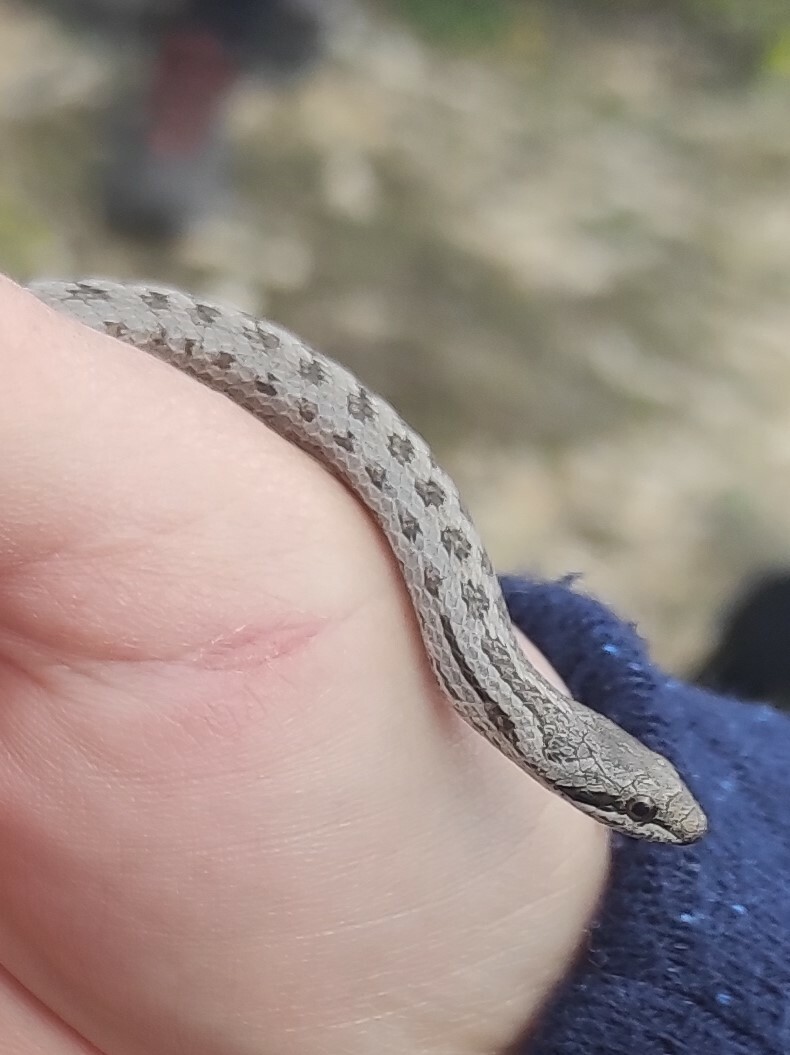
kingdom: Animalia
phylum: Chordata
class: Squamata
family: Colubridae
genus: Coronella
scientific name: Coronella austriaca
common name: Smooth snake
